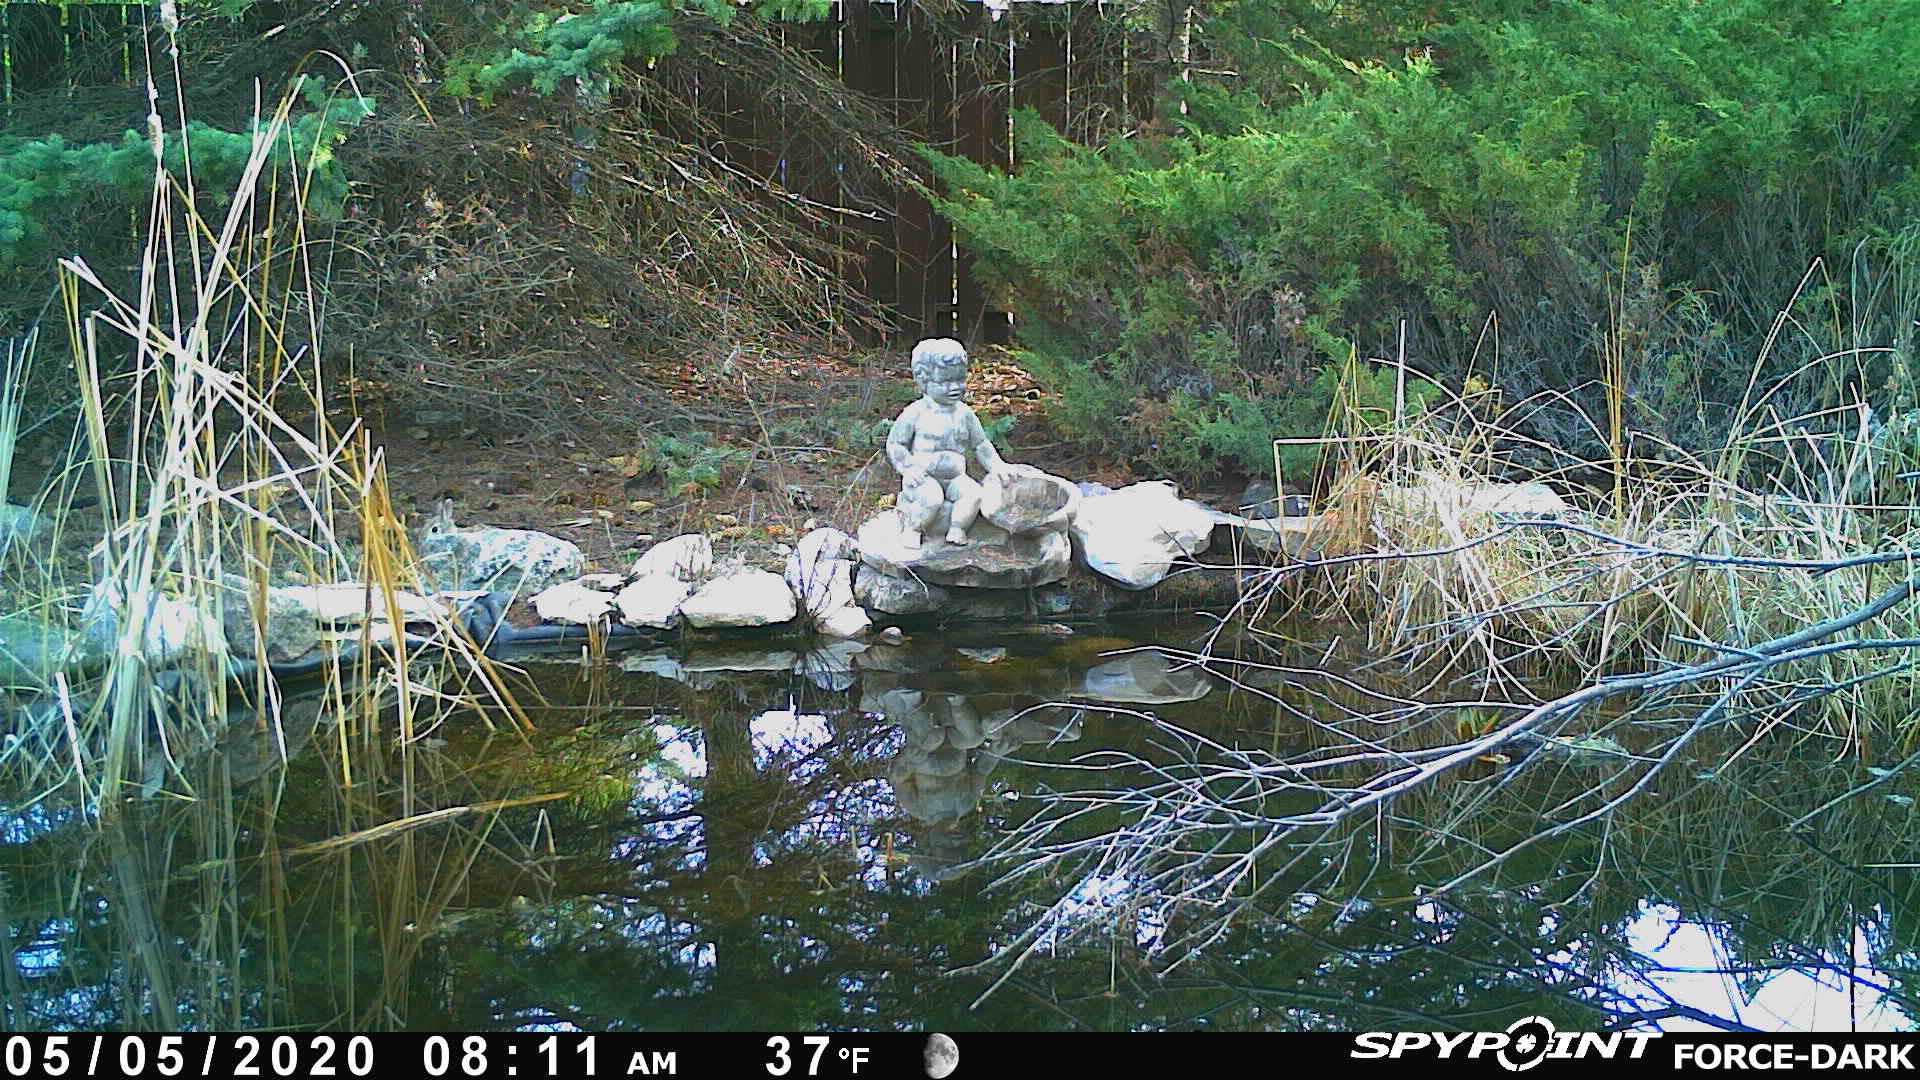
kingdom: Animalia
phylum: Chordata
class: Mammalia
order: Lagomorpha
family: Leporidae
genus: Sylvilagus
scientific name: Sylvilagus floridanus
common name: Eastern cottontail
